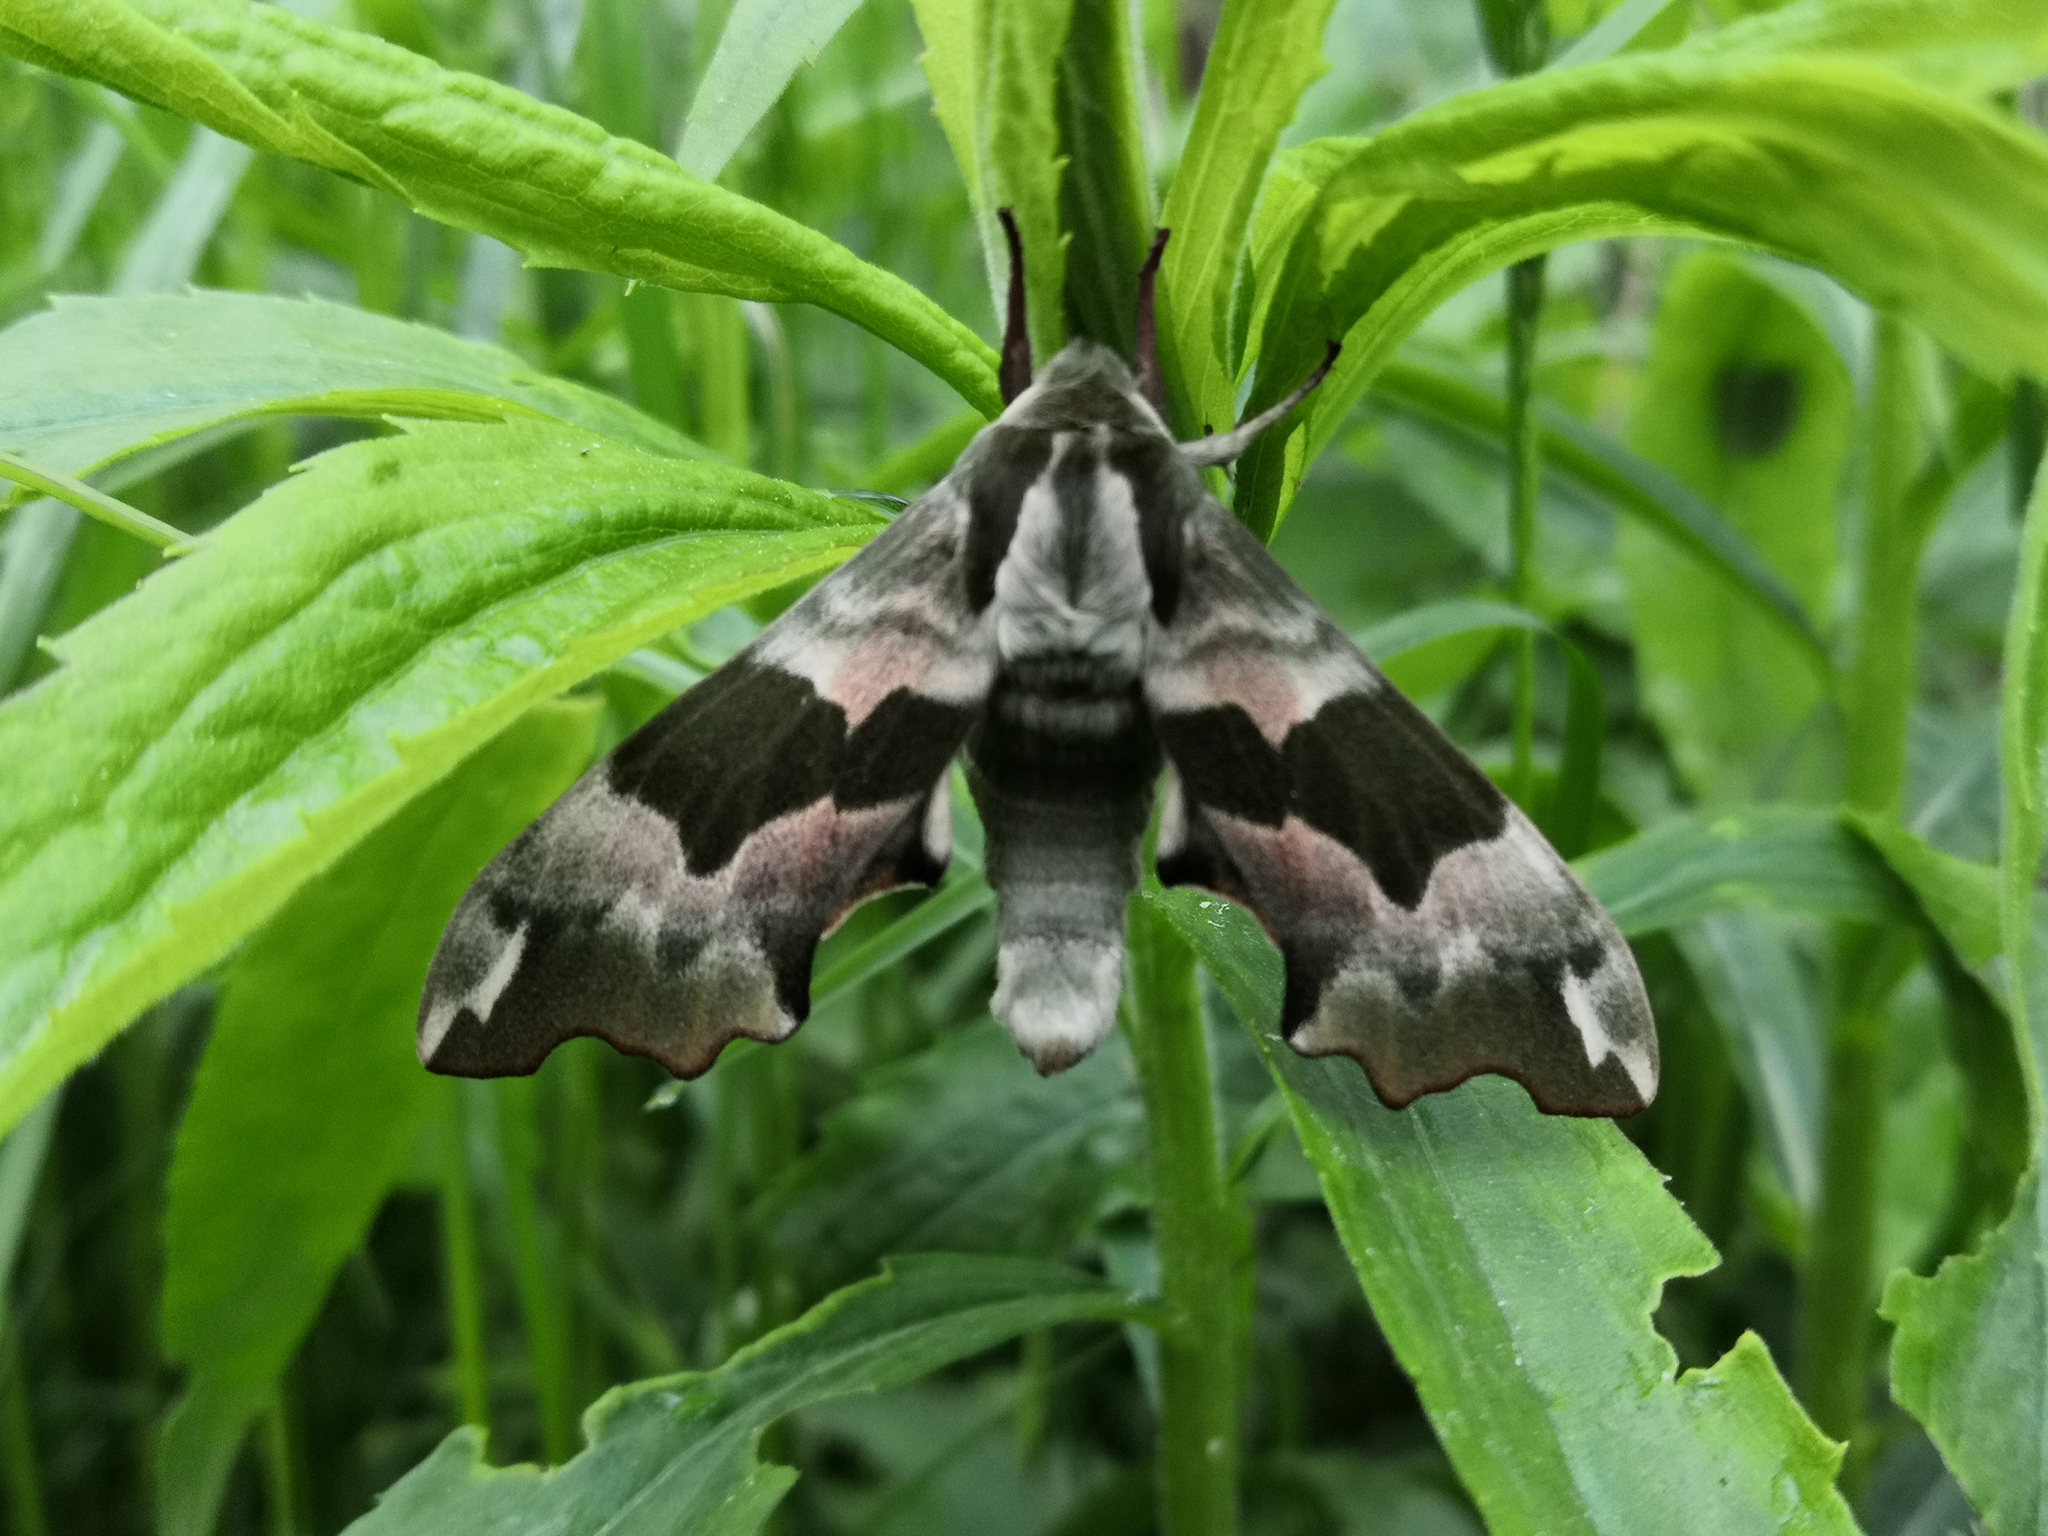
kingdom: Animalia
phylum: Arthropoda
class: Insecta
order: Lepidoptera
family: Sphingidae
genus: Mimas
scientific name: Mimas tiliae
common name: Lime hawk-moth
